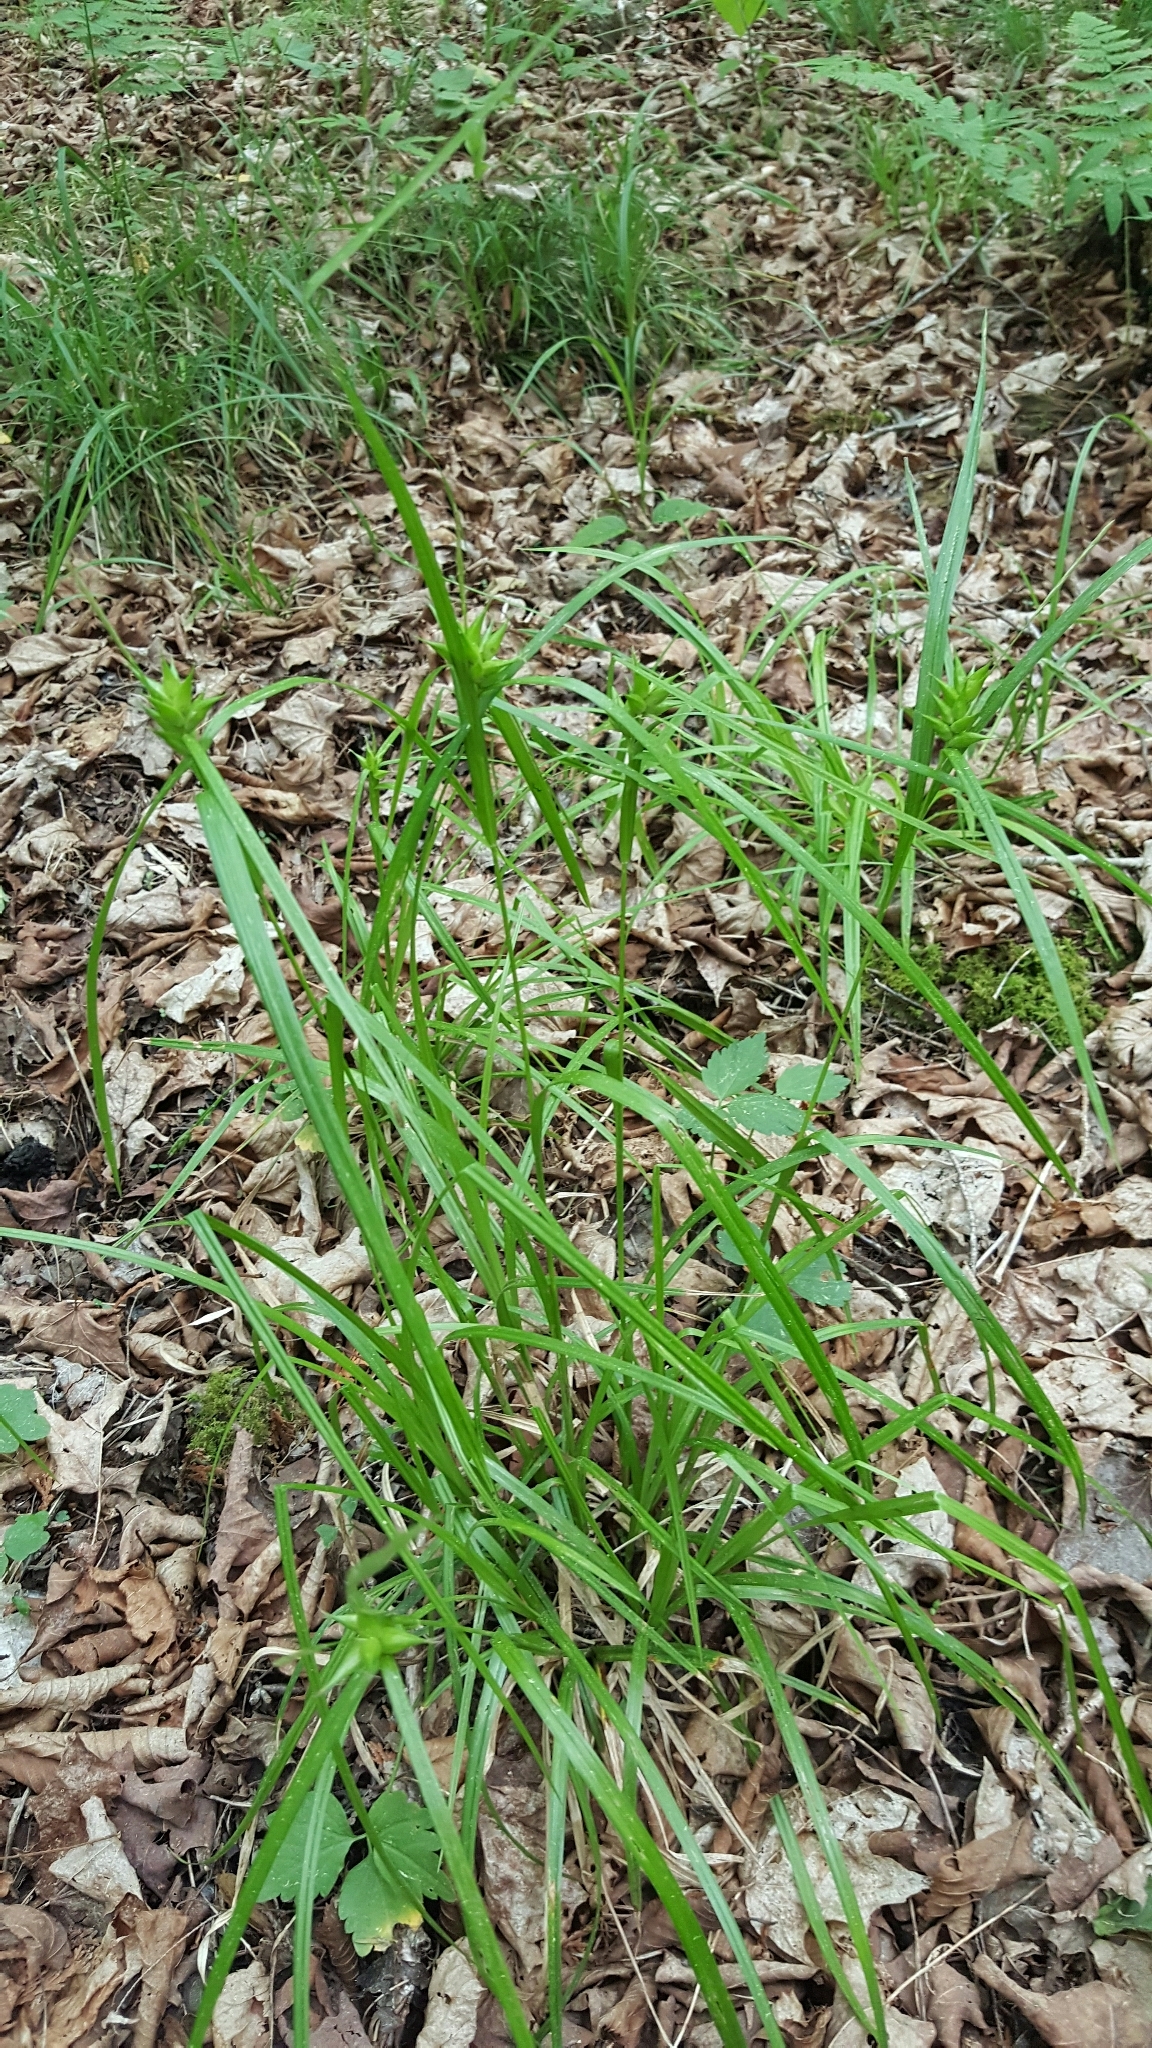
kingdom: Plantae
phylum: Tracheophyta
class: Liliopsida
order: Poales
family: Cyperaceae
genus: Carex
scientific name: Carex intumescens
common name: Greater bladder sedge
